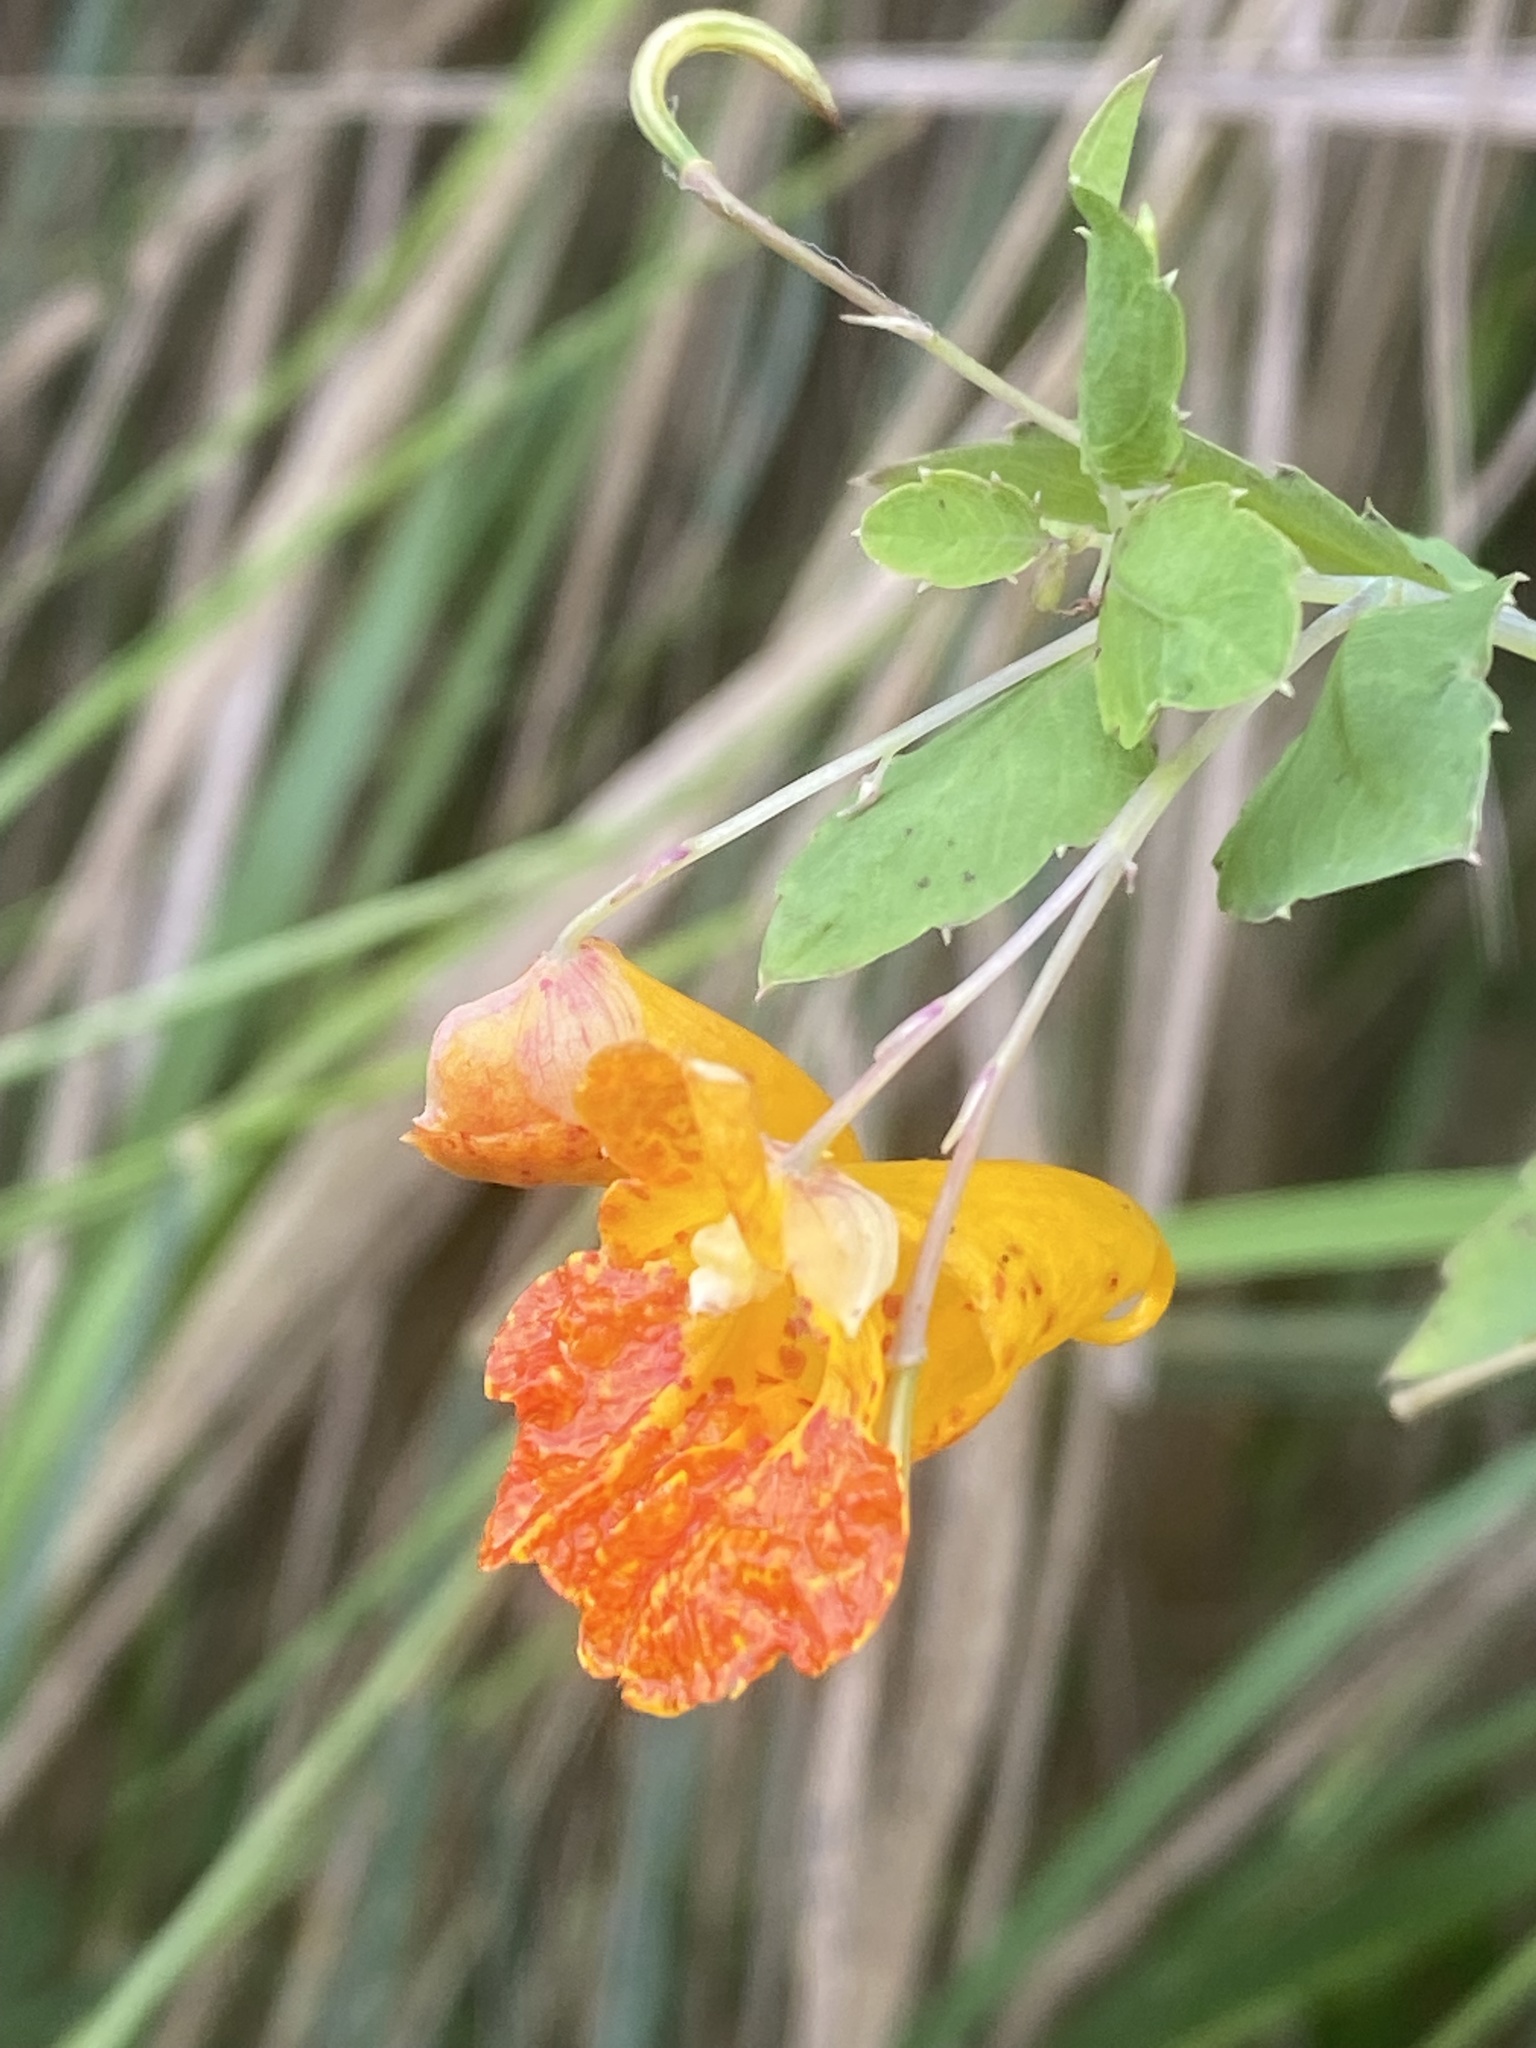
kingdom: Plantae
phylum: Tracheophyta
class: Magnoliopsida
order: Ericales
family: Balsaminaceae
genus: Impatiens
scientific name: Impatiens capensis
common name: Orange balsam
